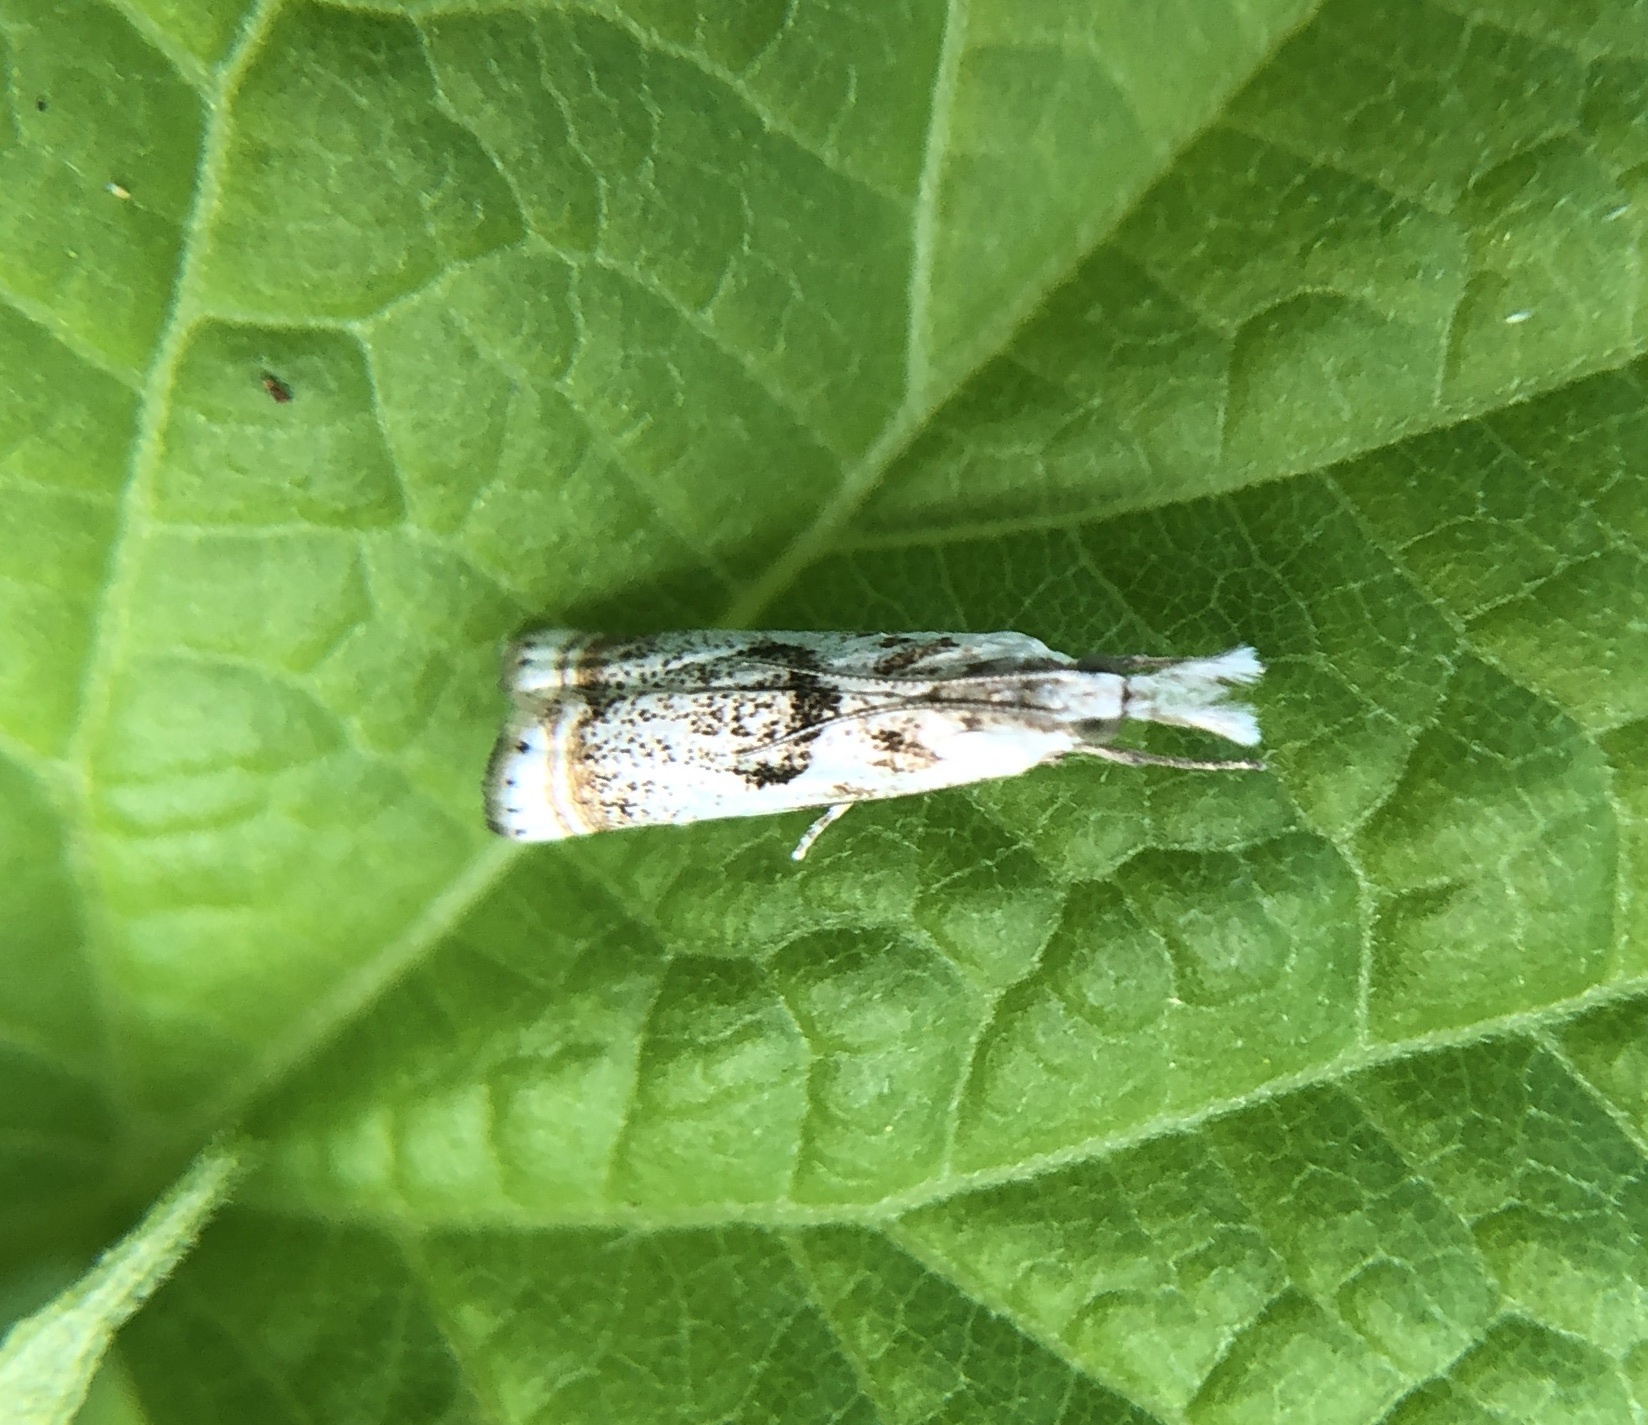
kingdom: Animalia
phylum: Arthropoda
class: Insecta
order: Lepidoptera
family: Crambidae
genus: Microcrambus
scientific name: Microcrambus elegans
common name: Elegant grass-veneer
